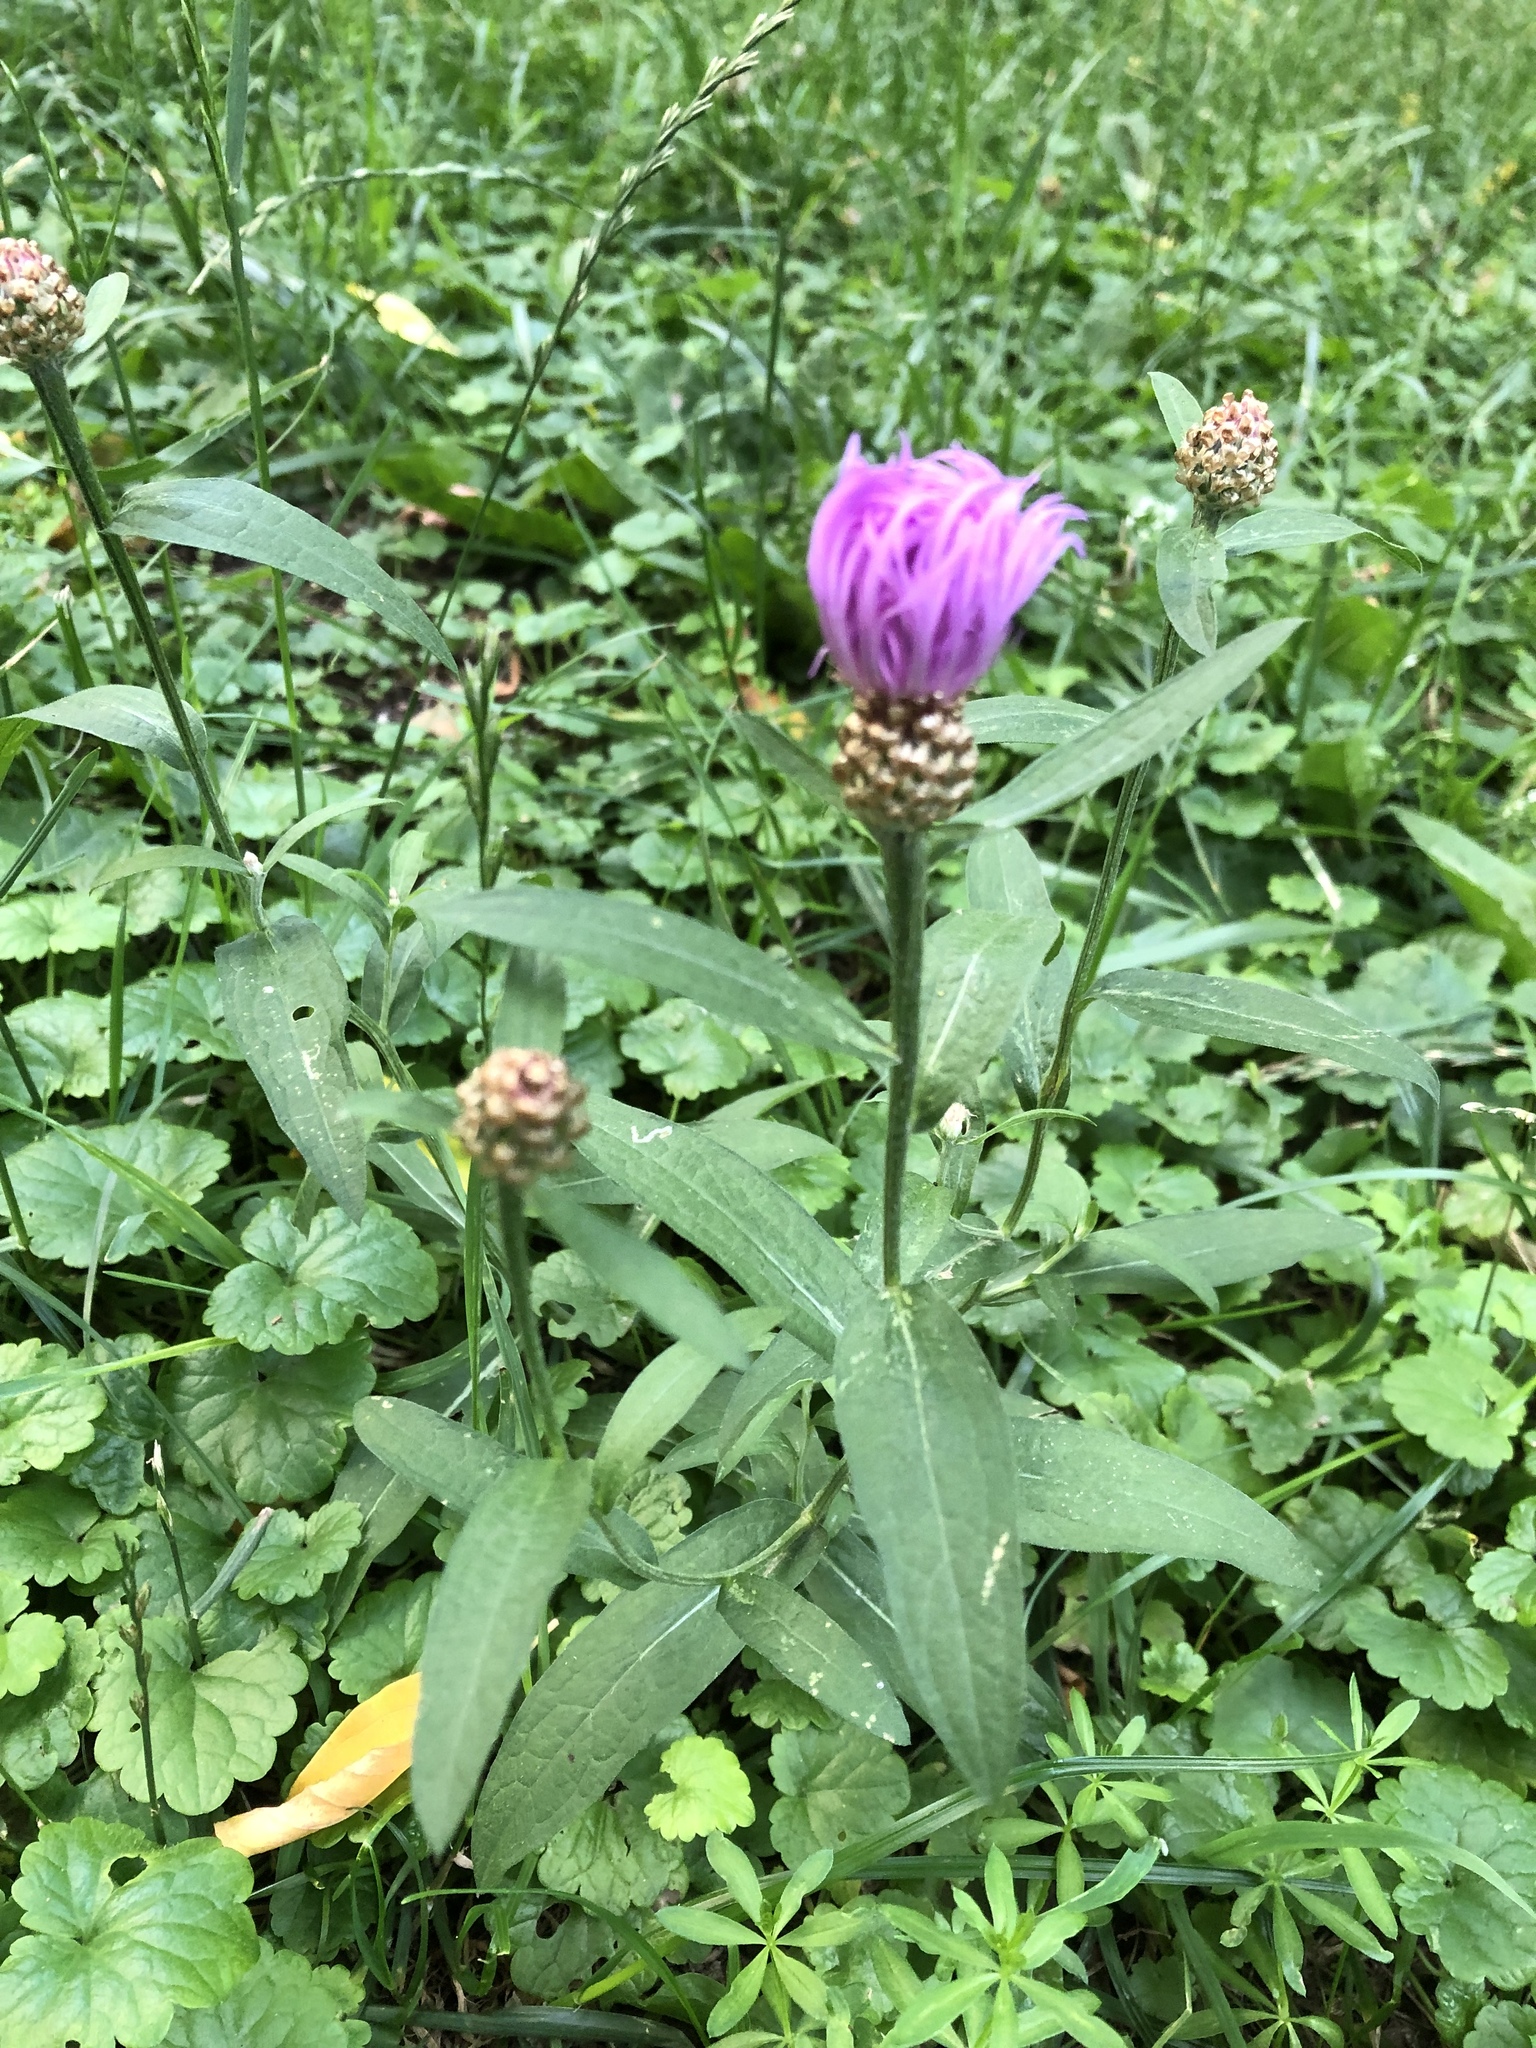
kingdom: Plantae
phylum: Tracheophyta
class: Magnoliopsida
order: Asterales
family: Asteraceae
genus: Centaurea
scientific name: Centaurea jacea
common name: Brown knapweed
